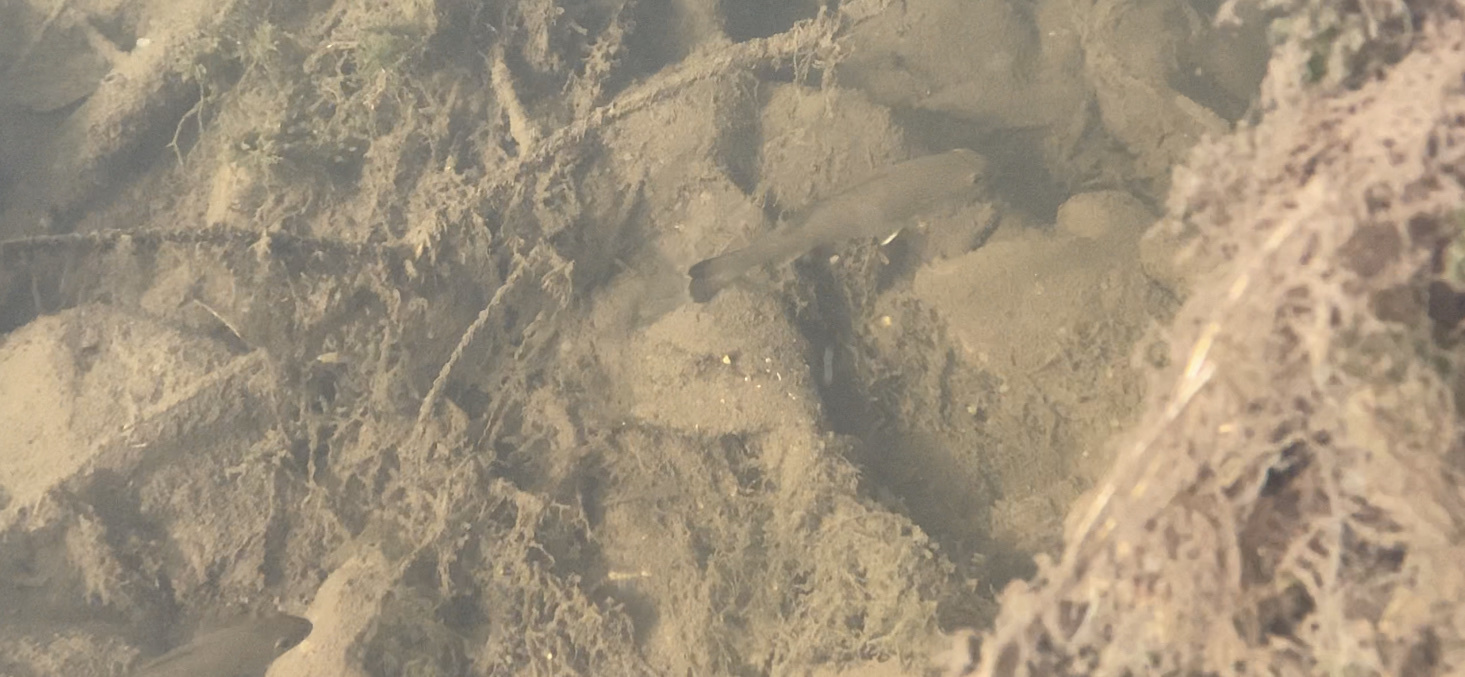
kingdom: Animalia
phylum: Chordata
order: Perciformes
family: Centrarchidae
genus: Micropterus
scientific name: Micropterus dolomieu
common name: Smallmouth bass
